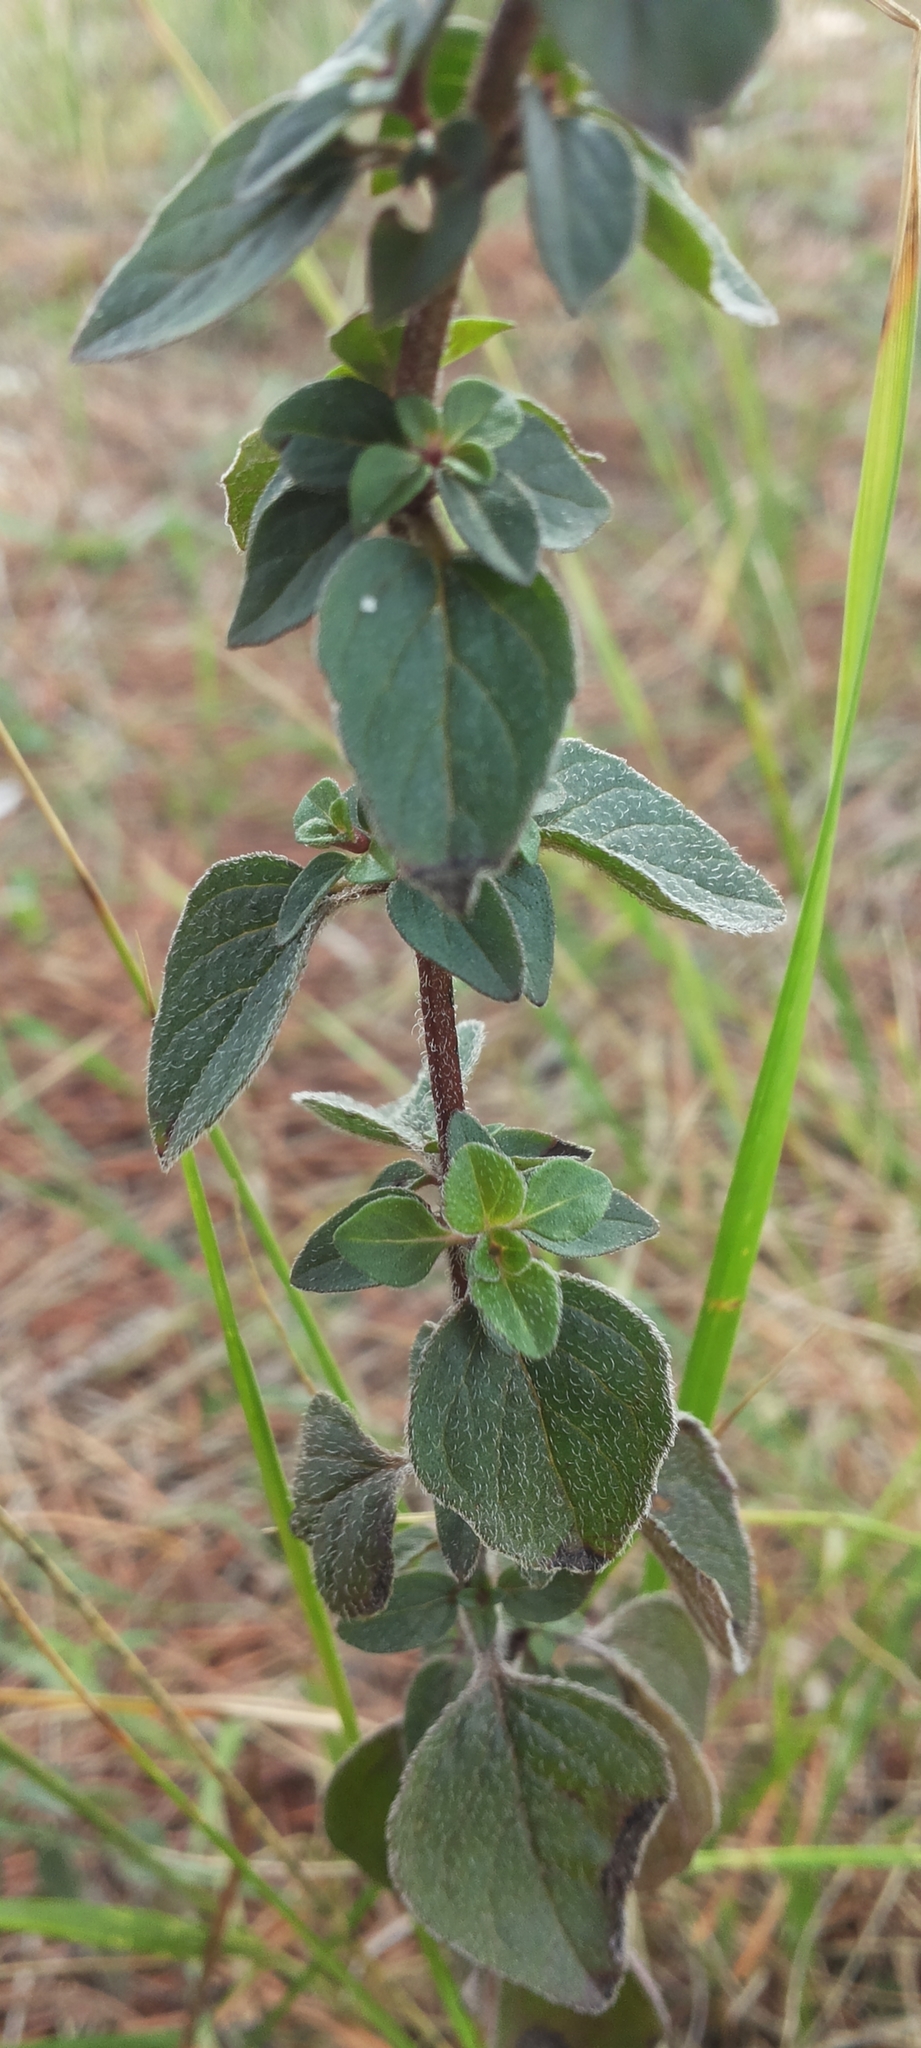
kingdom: Plantae
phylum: Tracheophyta
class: Magnoliopsida
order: Lamiales
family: Lamiaceae
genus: Origanum
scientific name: Origanum vulgare
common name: Wild marjoram
